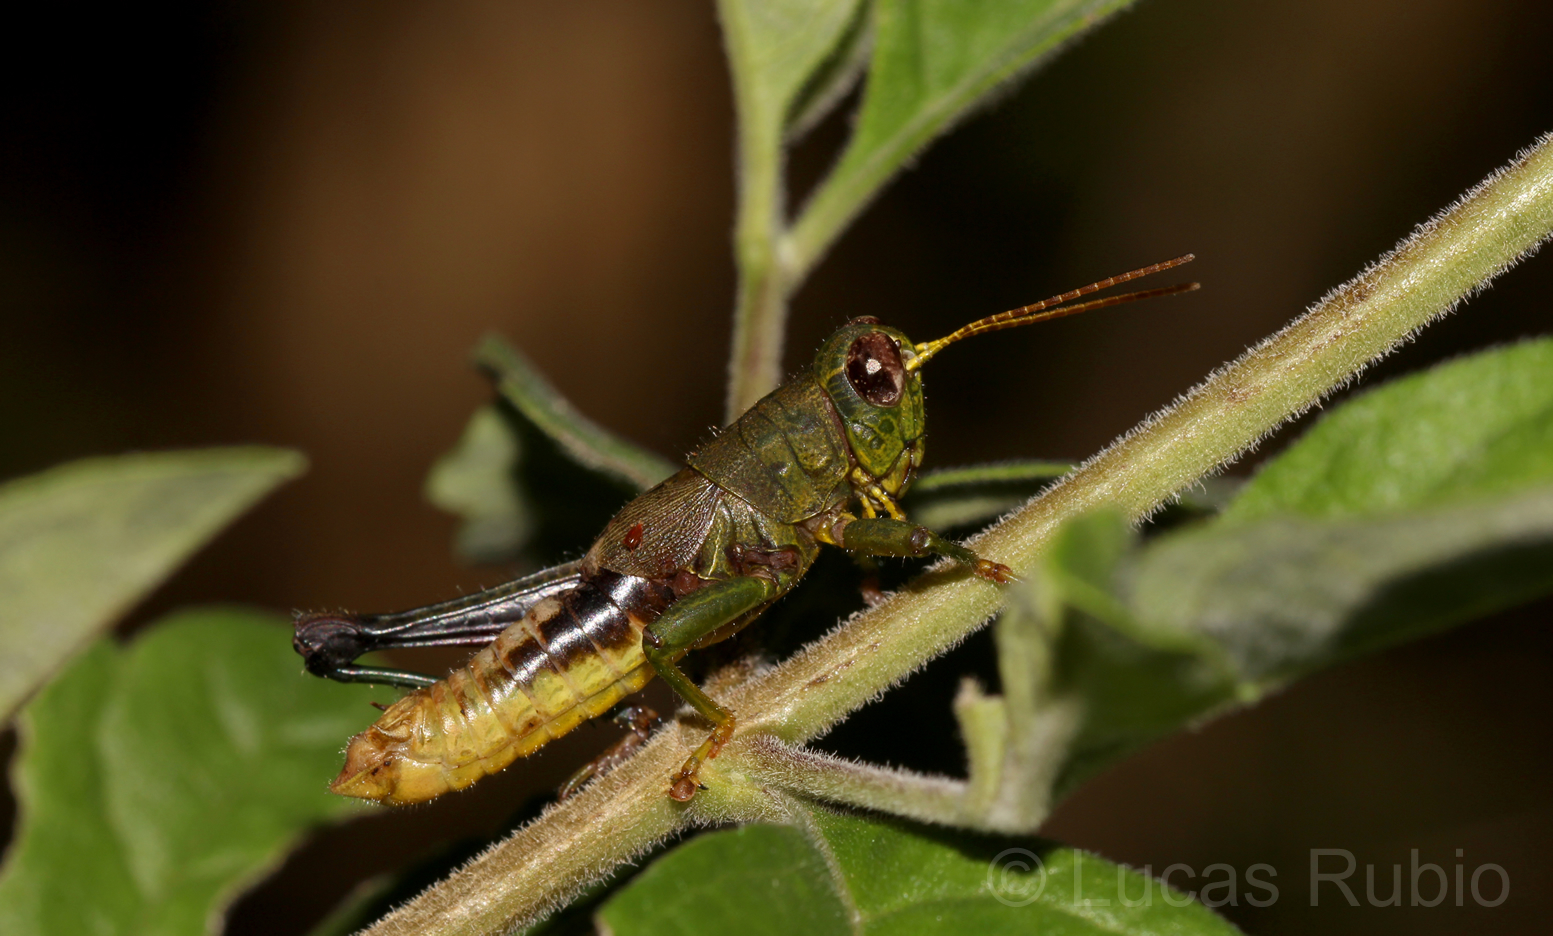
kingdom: Animalia
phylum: Arthropoda
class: Insecta
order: Orthoptera
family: Acrididae
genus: Dichromatos
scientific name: Dichromatos lilloanus
